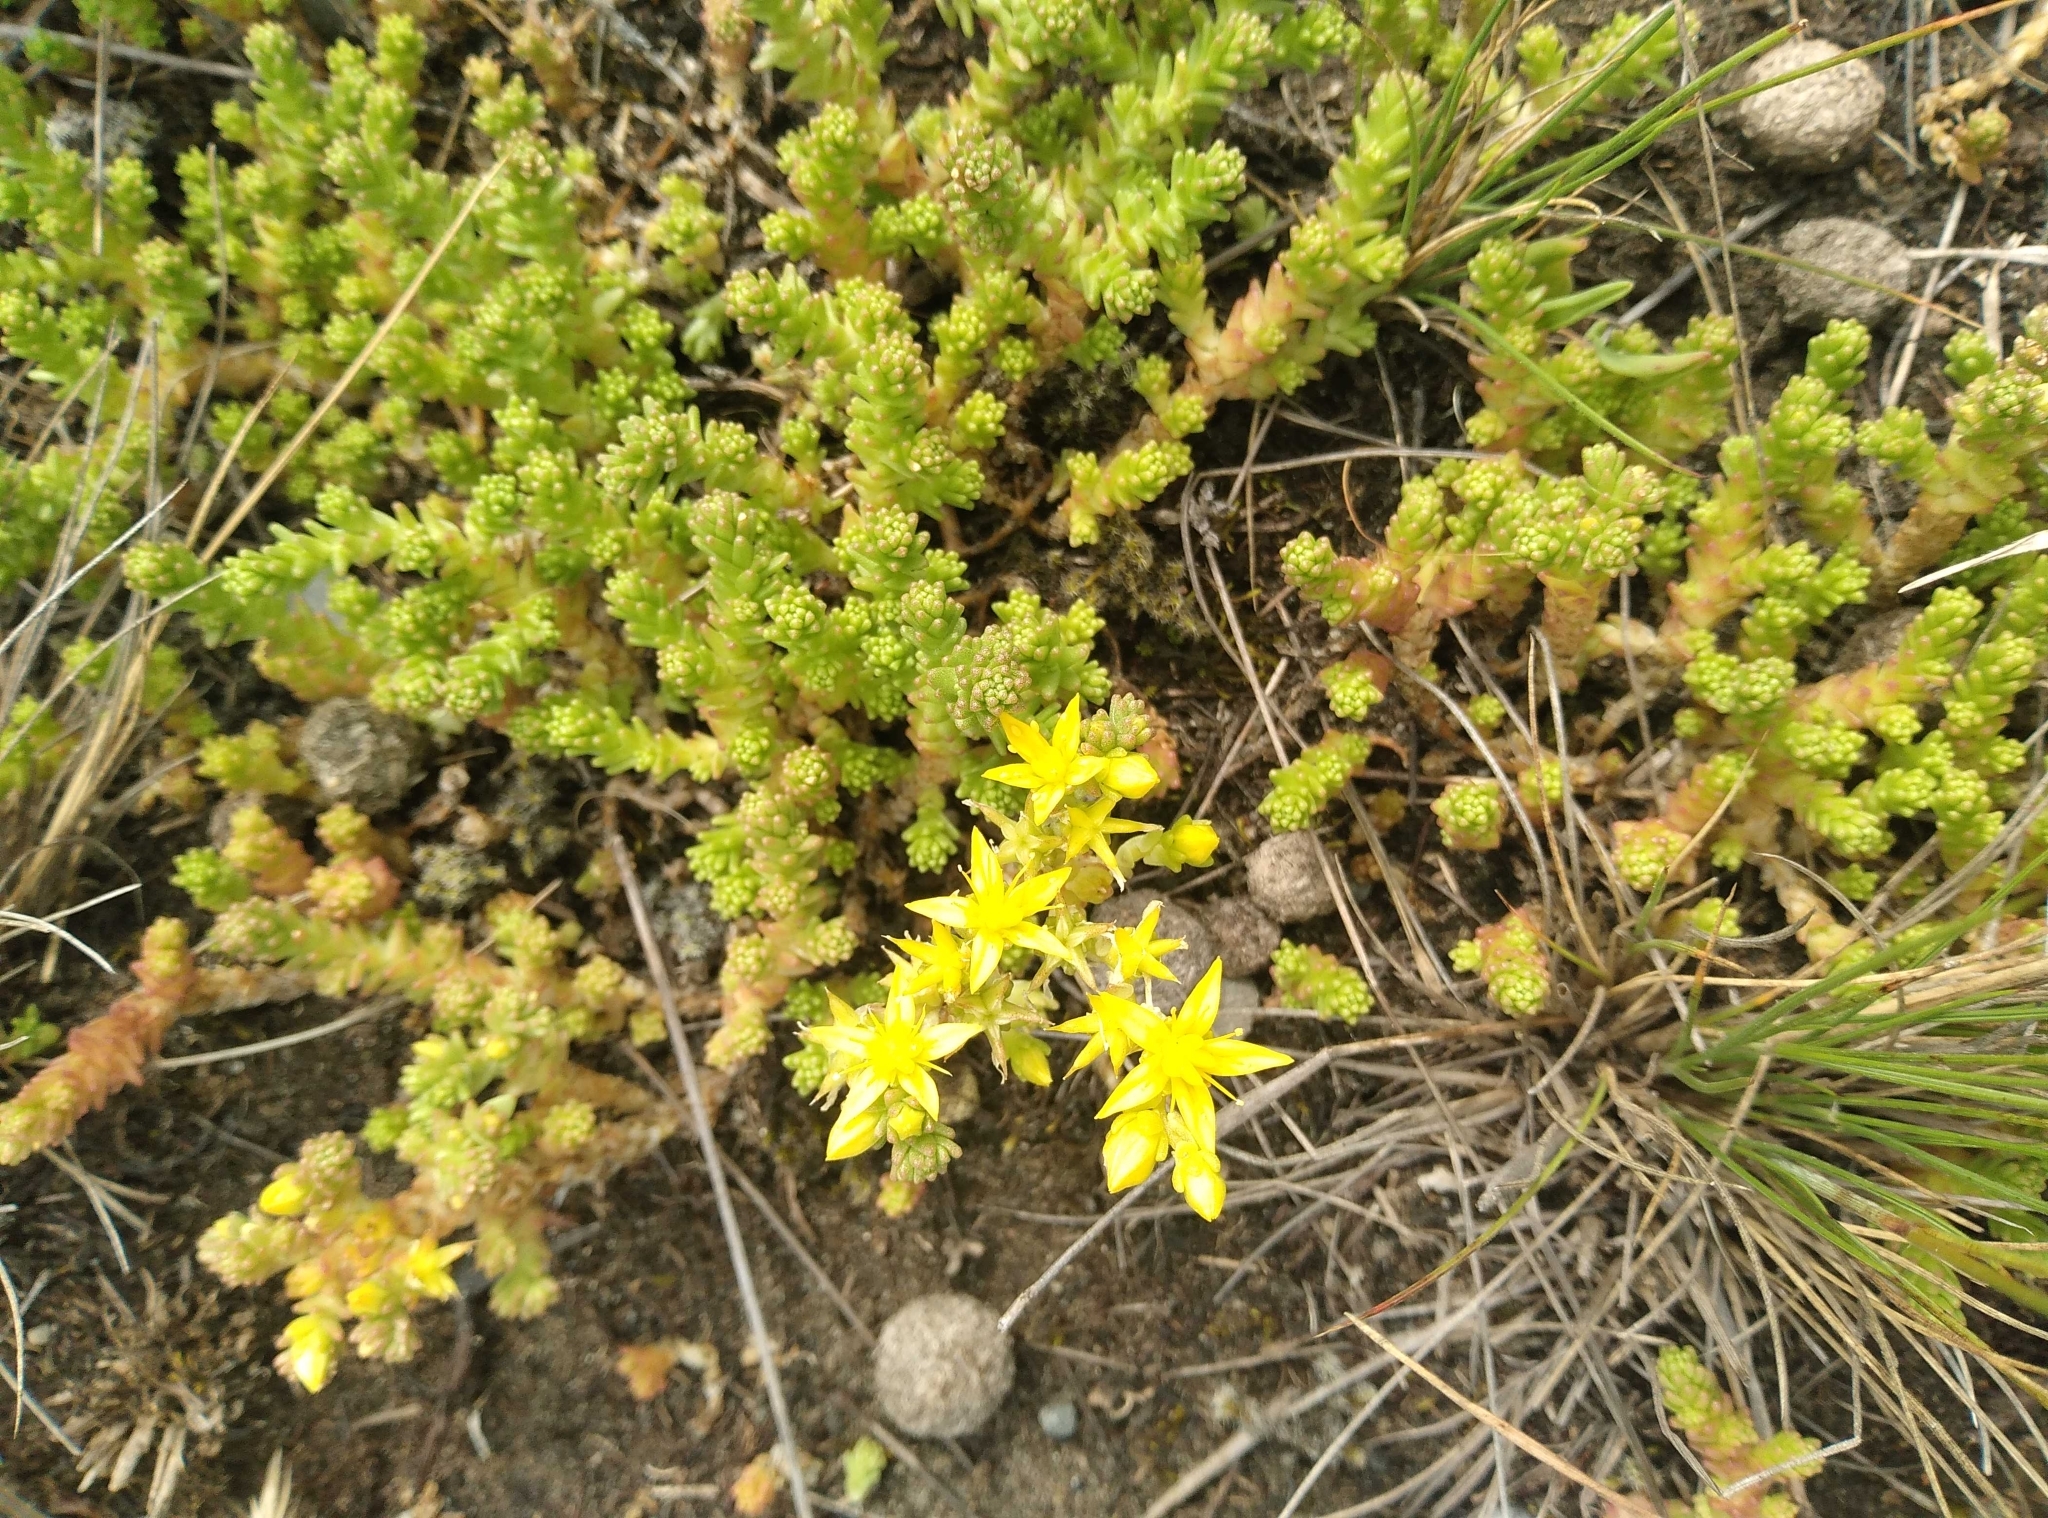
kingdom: Plantae
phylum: Tracheophyta
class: Magnoliopsida
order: Saxifragales
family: Crassulaceae
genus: Sedum
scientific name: Sedum acre
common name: Biting stonecrop
